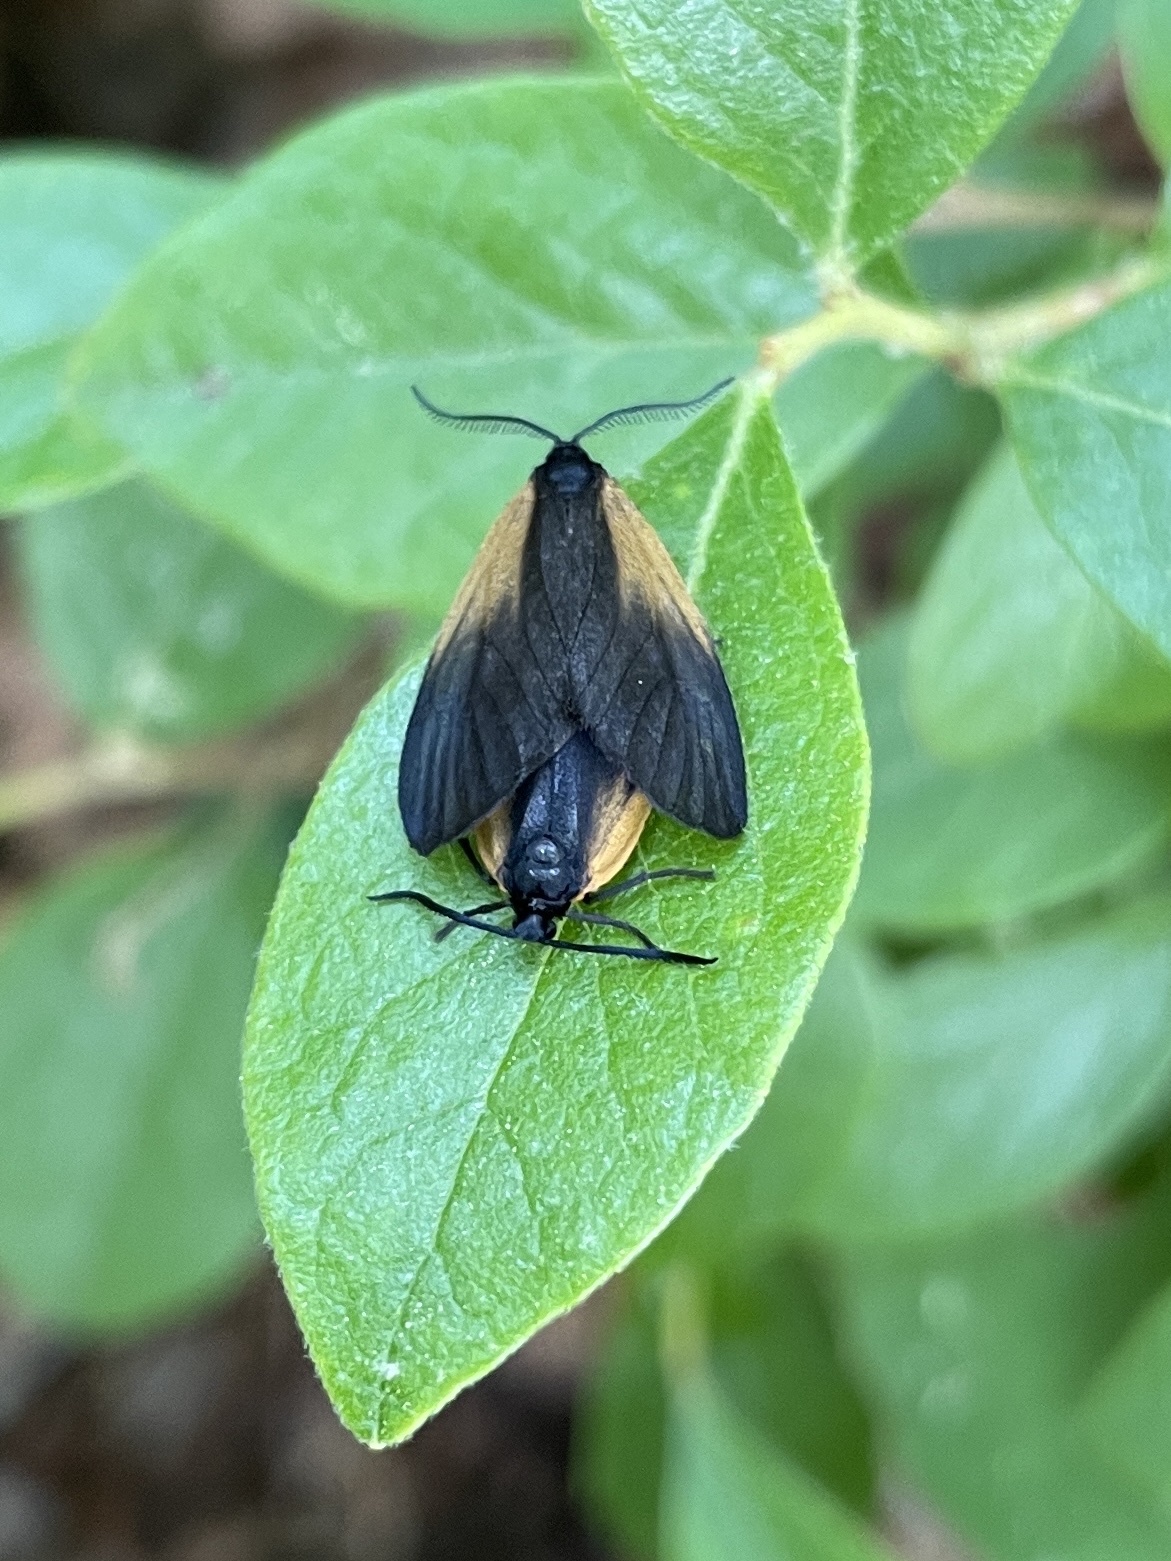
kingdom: Animalia
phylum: Arthropoda
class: Insecta
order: Lepidoptera
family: Zygaenidae
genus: Malthaca
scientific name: Malthaca dimidiata
